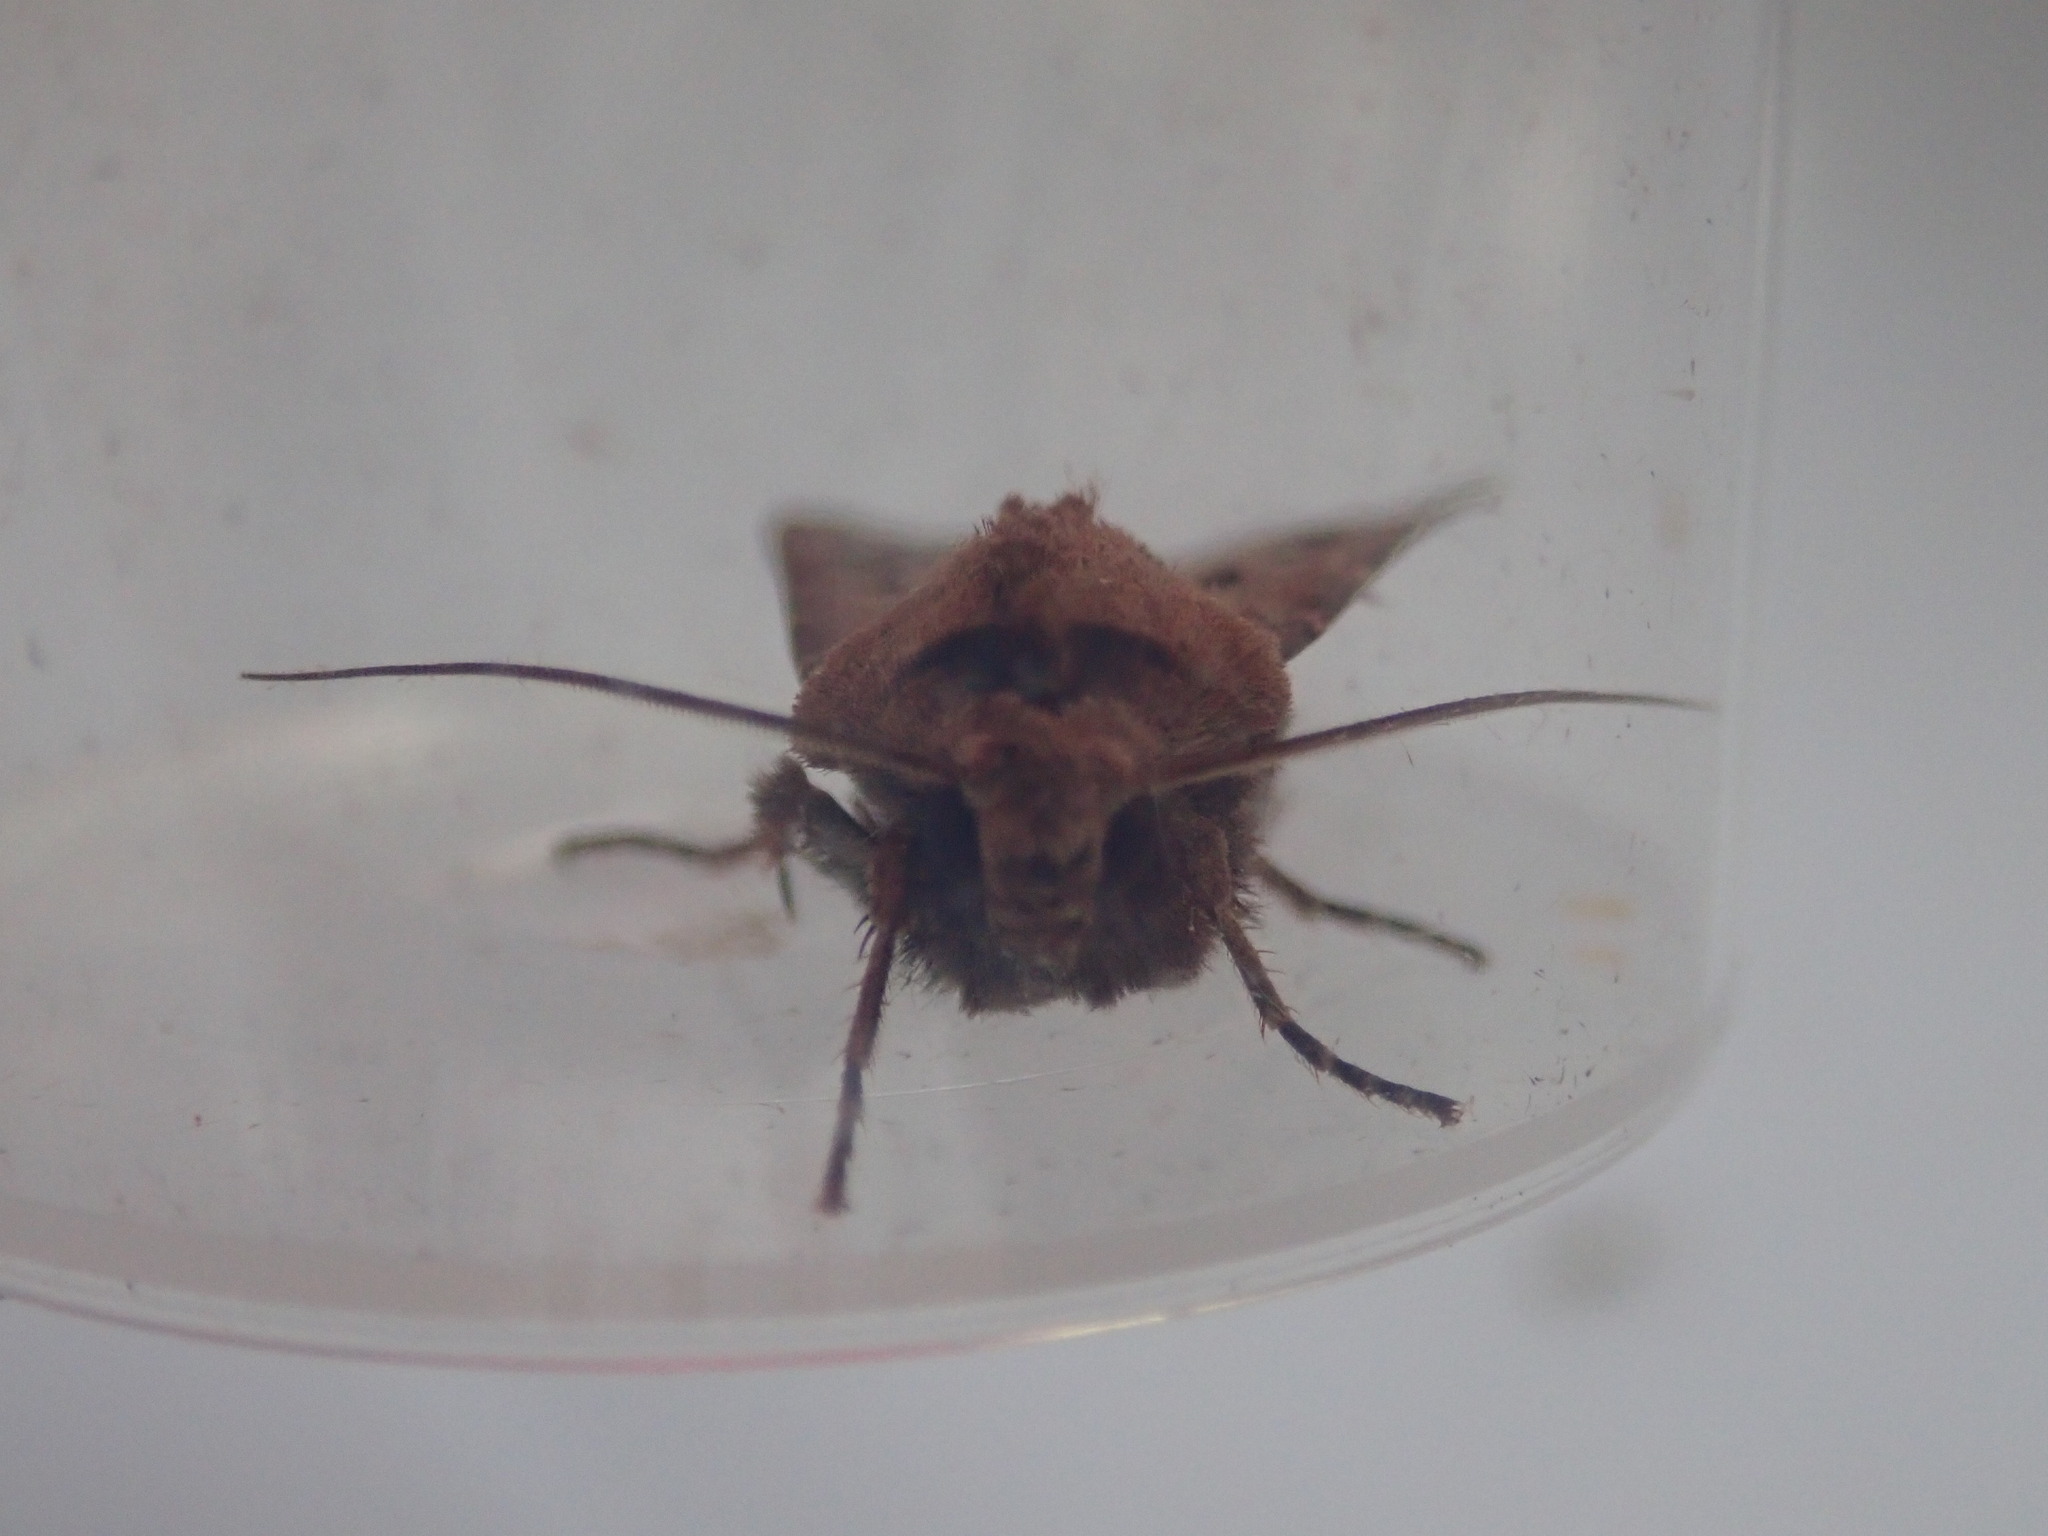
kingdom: Animalia
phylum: Arthropoda
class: Insecta
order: Lepidoptera
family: Noctuidae
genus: Agrotis
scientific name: Agrotis exclamationis
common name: Heart and dart
